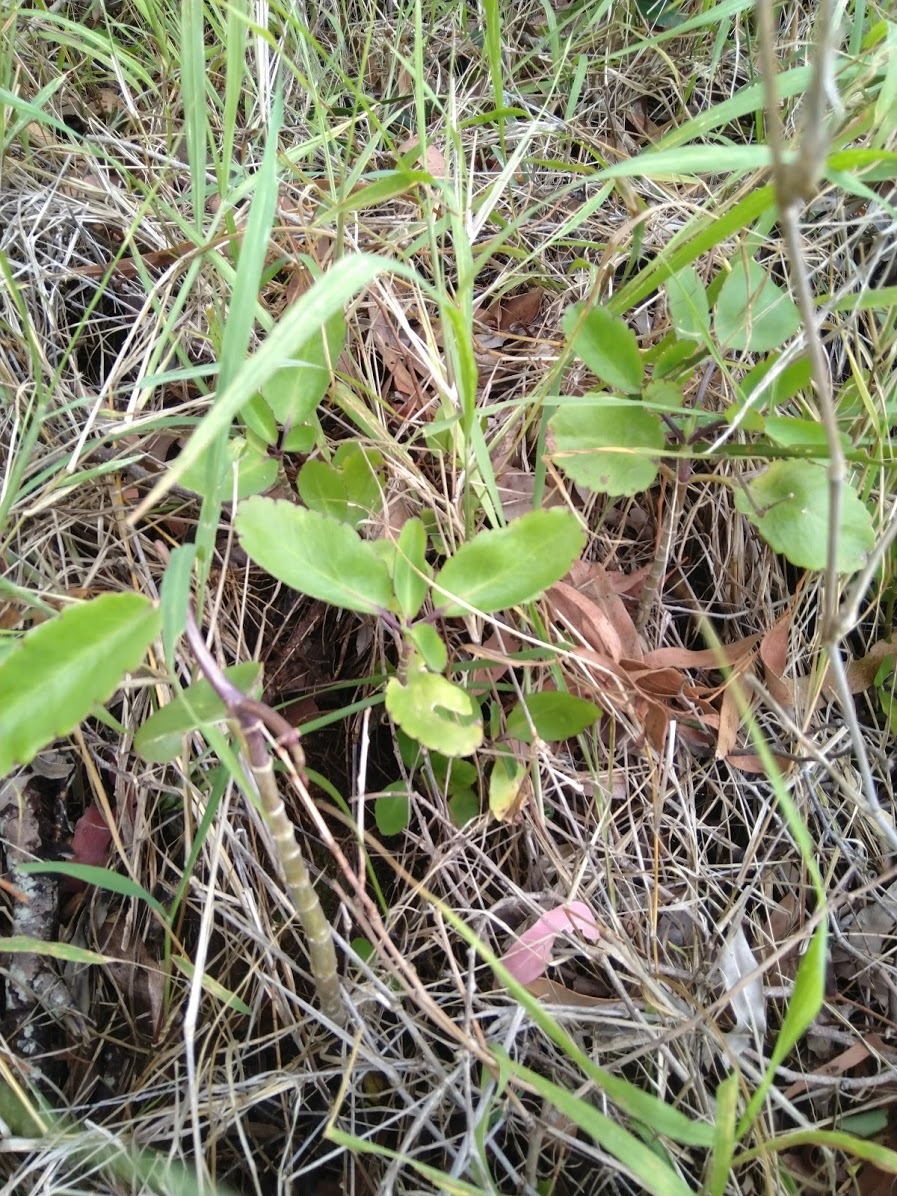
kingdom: Plantae
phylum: Tracheophyta
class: Magnoliopsida
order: Saxifragales
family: Crassulaceae
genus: Kalanchoe
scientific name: Kalanchoe pinnata
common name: Cathedral bells
